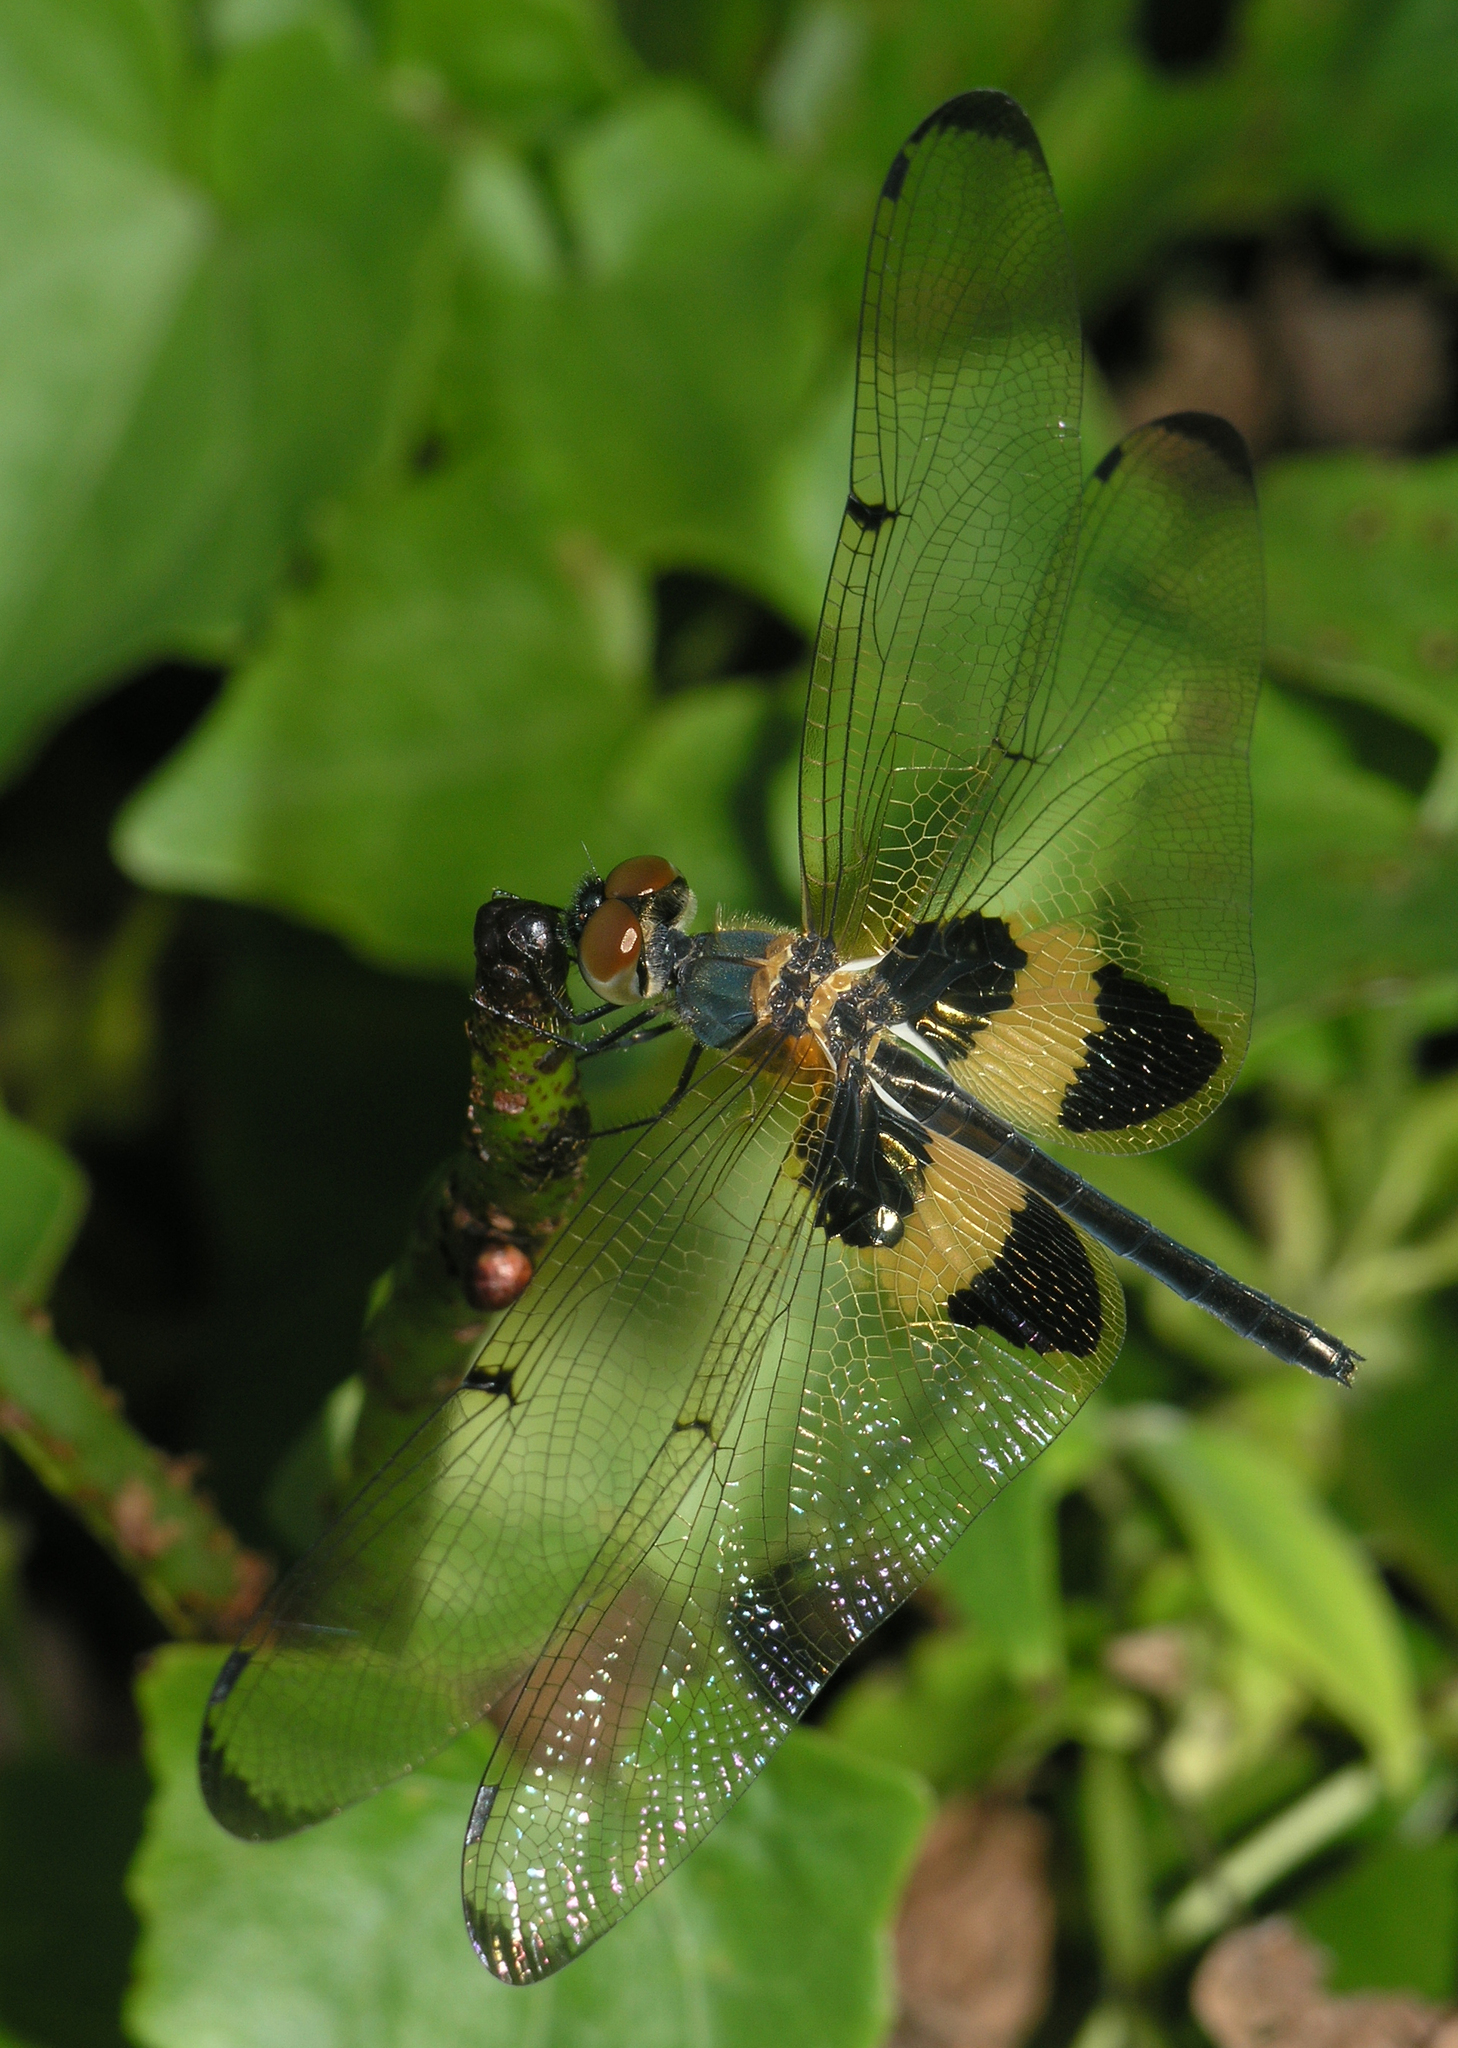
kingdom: Animalia
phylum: Arthropoda
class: Insecta
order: Odonata
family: Libellulidae
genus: Rhyothemis
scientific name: Rhyothemis phyllis
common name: Yellow-barred flutterer
